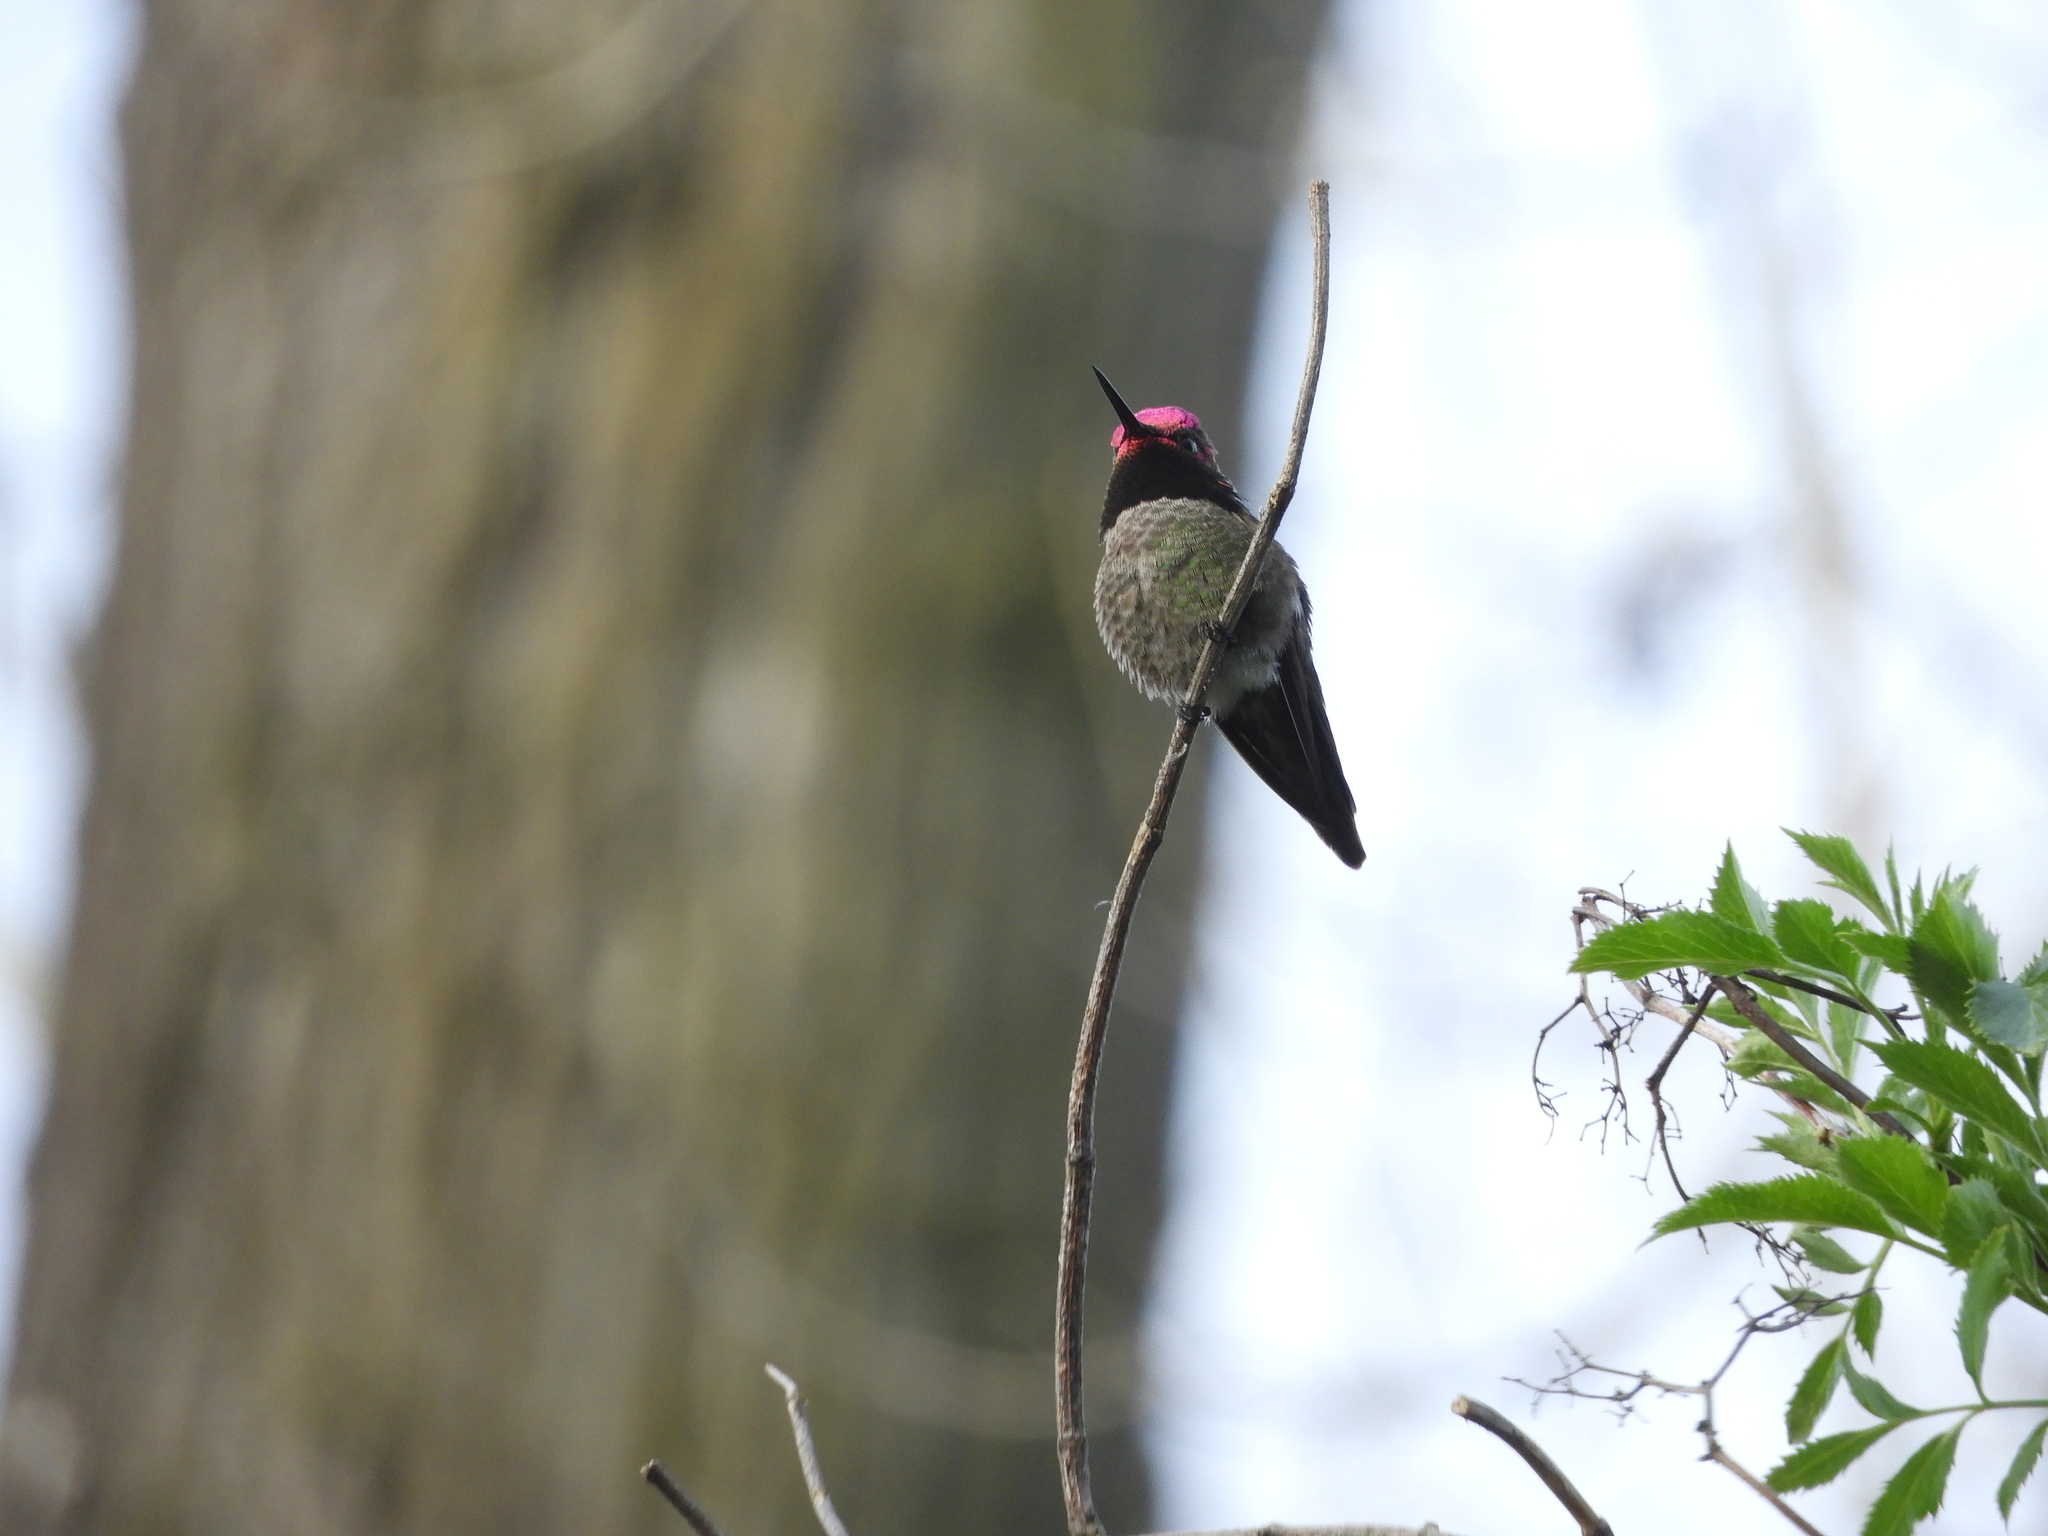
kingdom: Animalia
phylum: Chordata
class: Aves
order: Apodiformes
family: Trochilidae
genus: Calypte
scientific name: Calypte anna
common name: Anna's hummingbird
